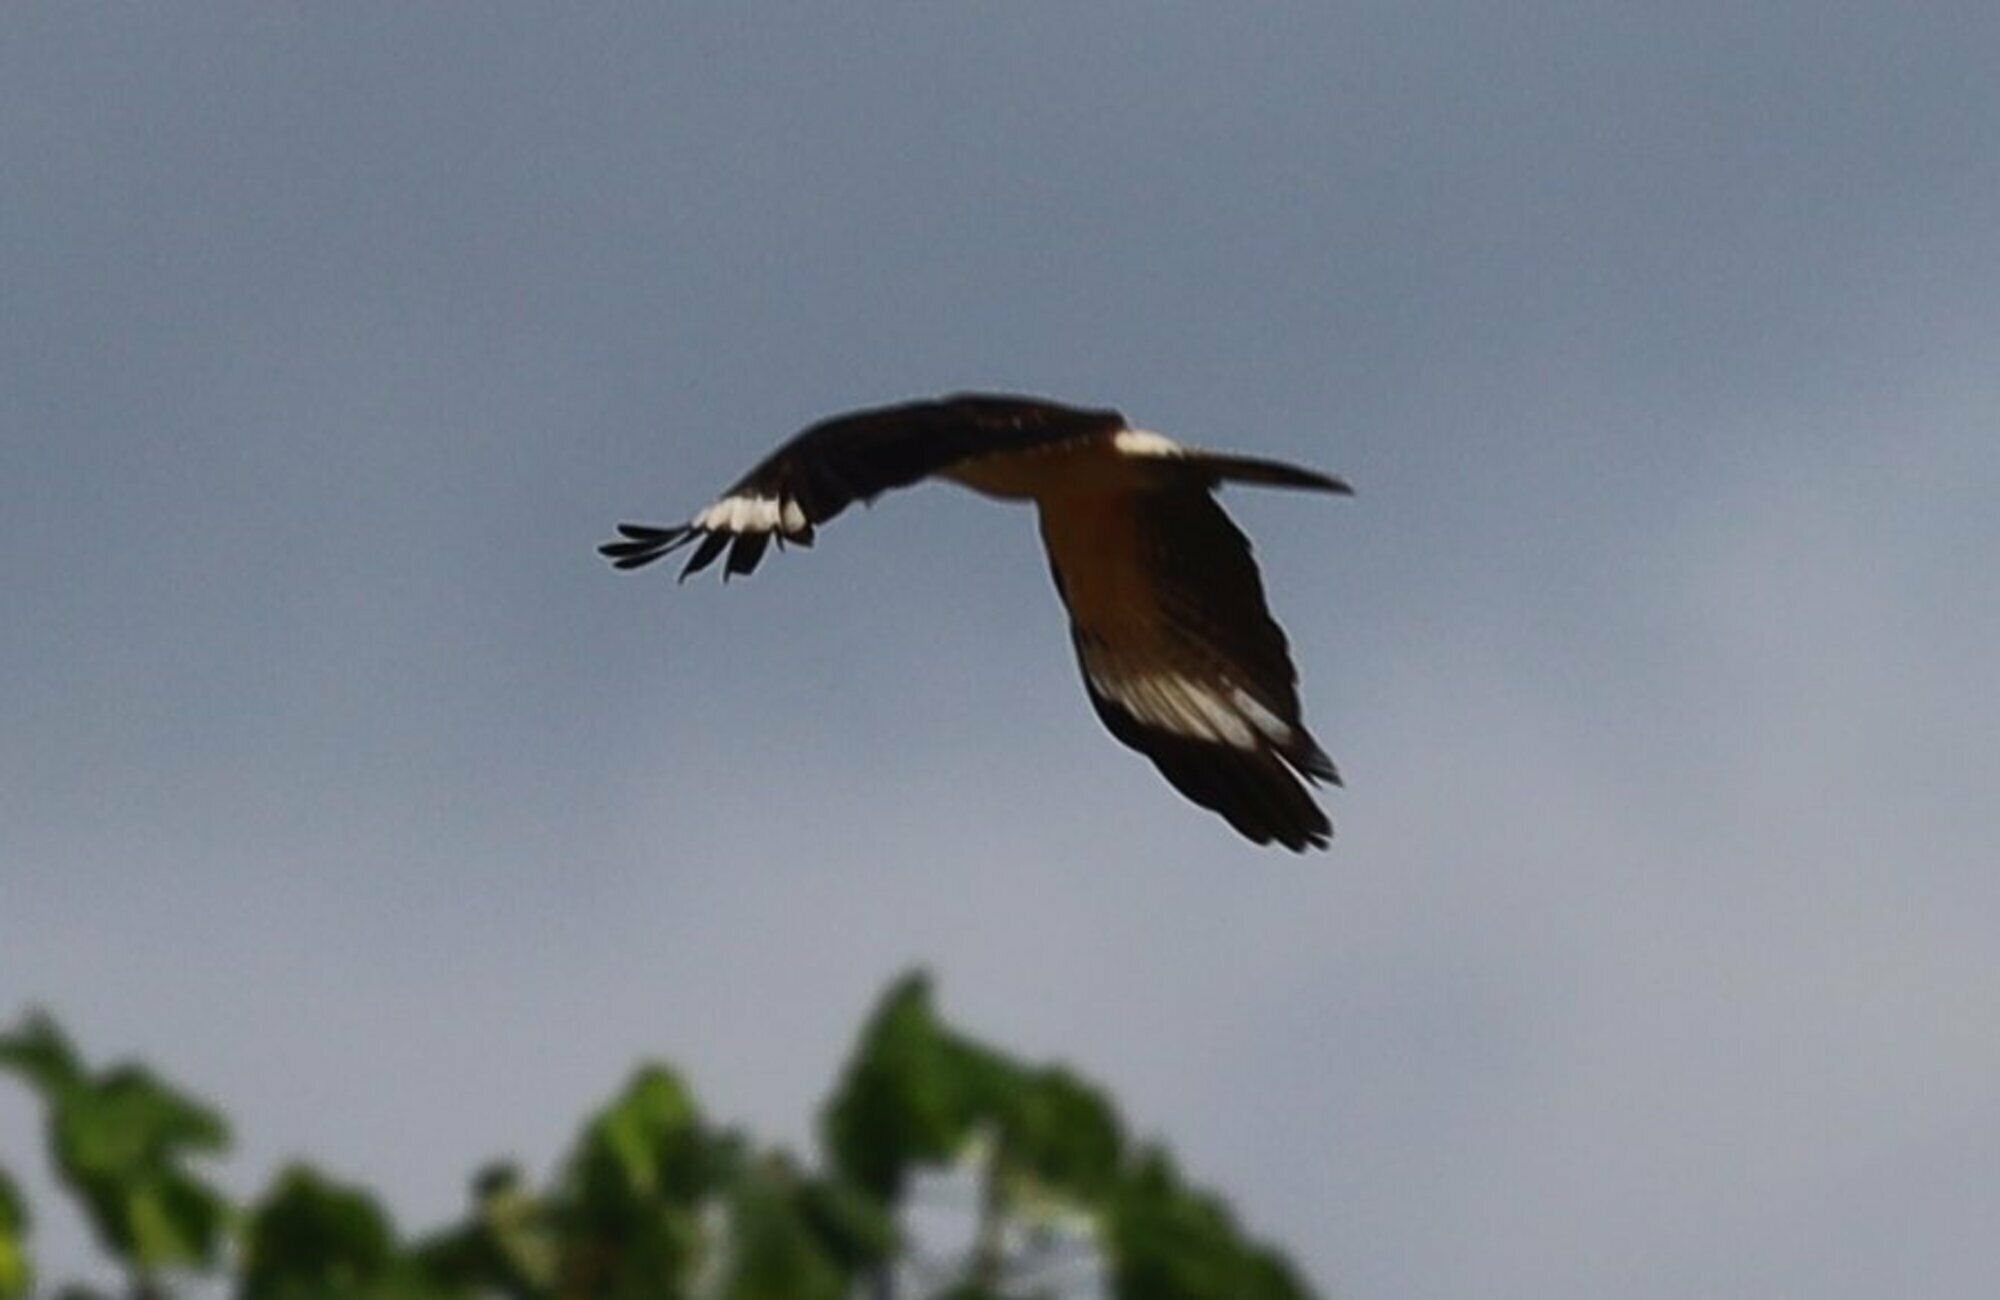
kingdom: Animalia
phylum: Chordata
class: Aves
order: Falconiformes
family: Falconidae
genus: Daptrius
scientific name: Daptrius
